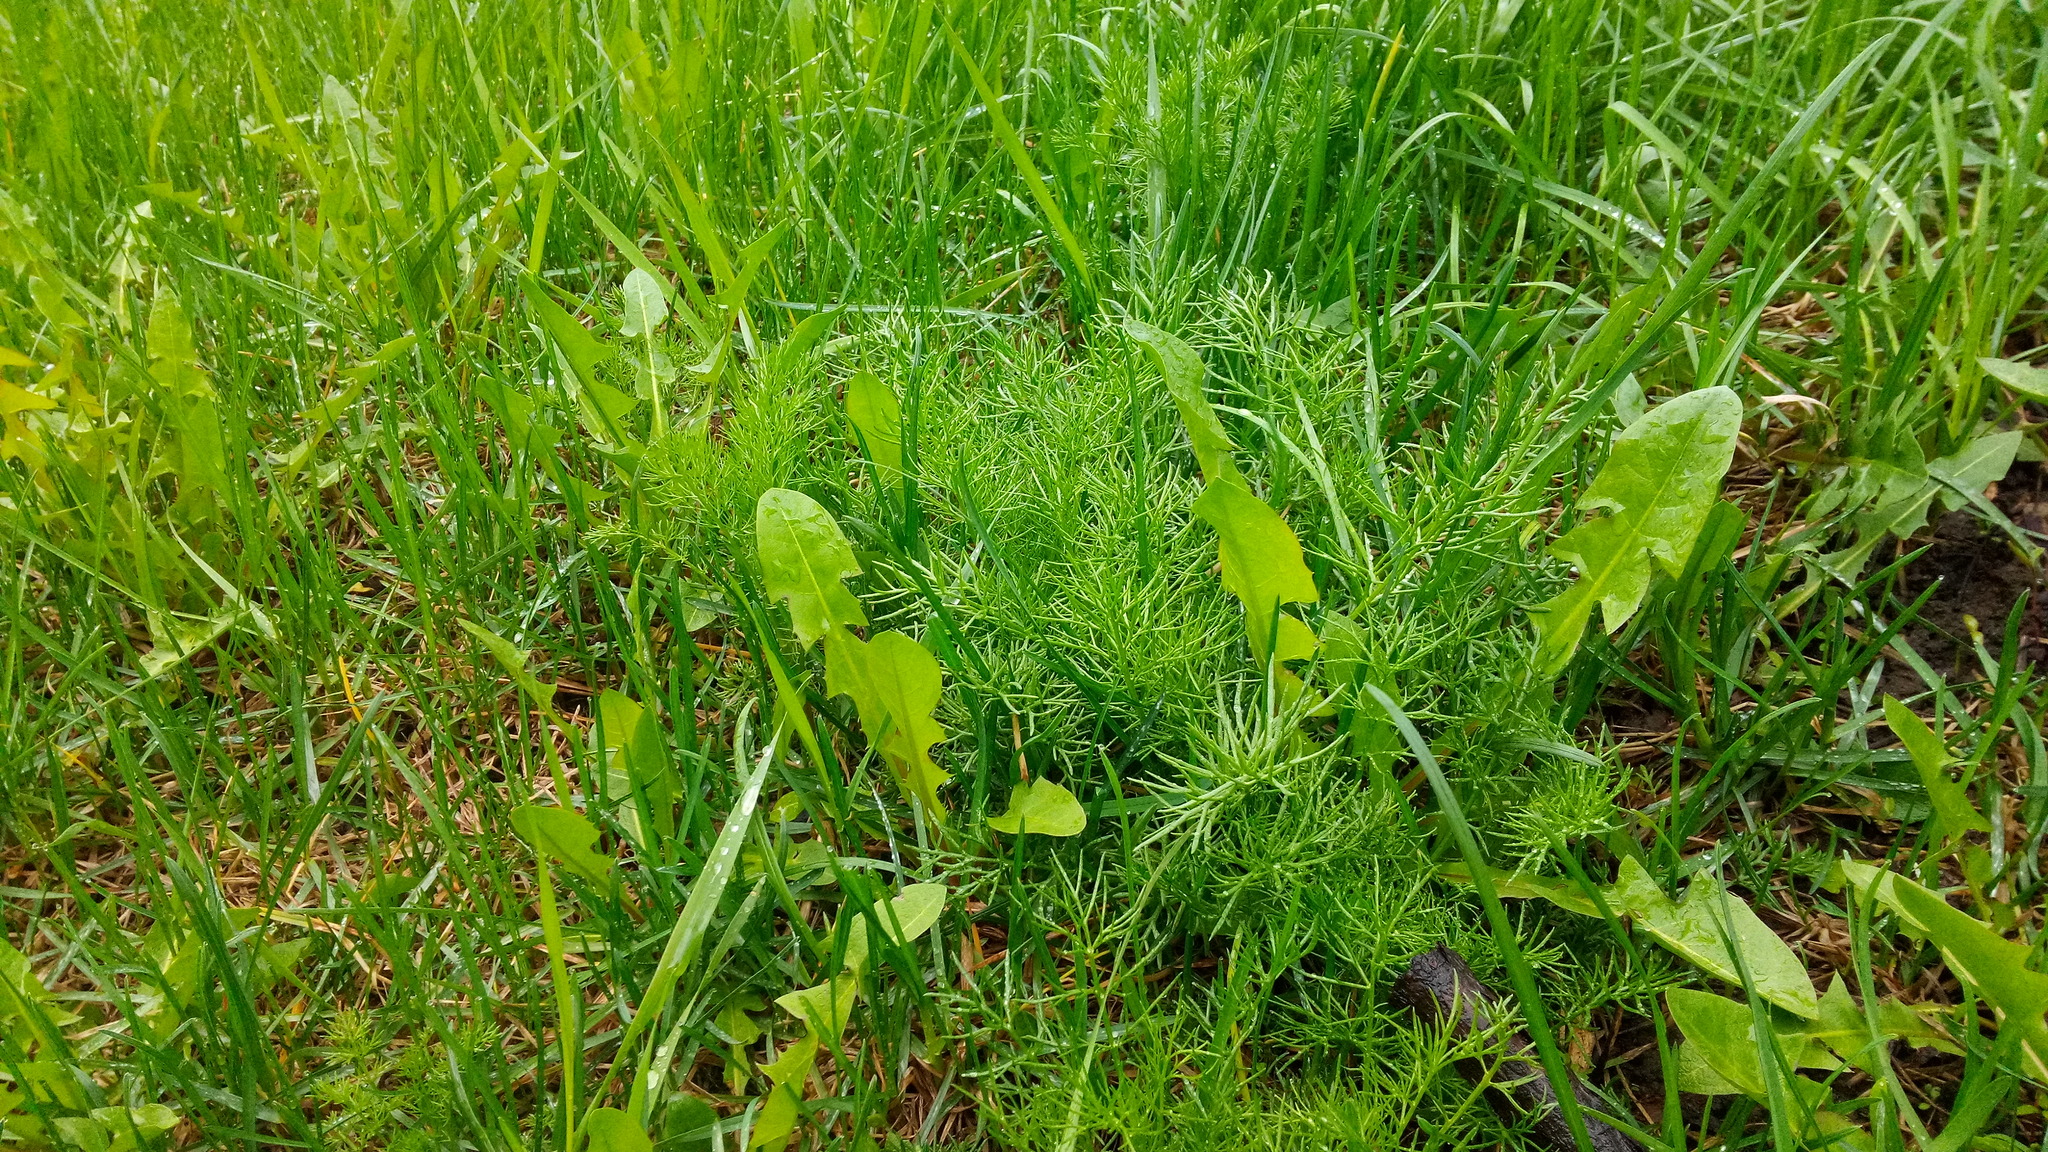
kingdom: Plantae
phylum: Tracheophyta
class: Magnoliopsida
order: Asterales
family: Asteraceae
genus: Tripleurospermum
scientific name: Tripleurospermum inodorum
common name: Scentless mayweed
